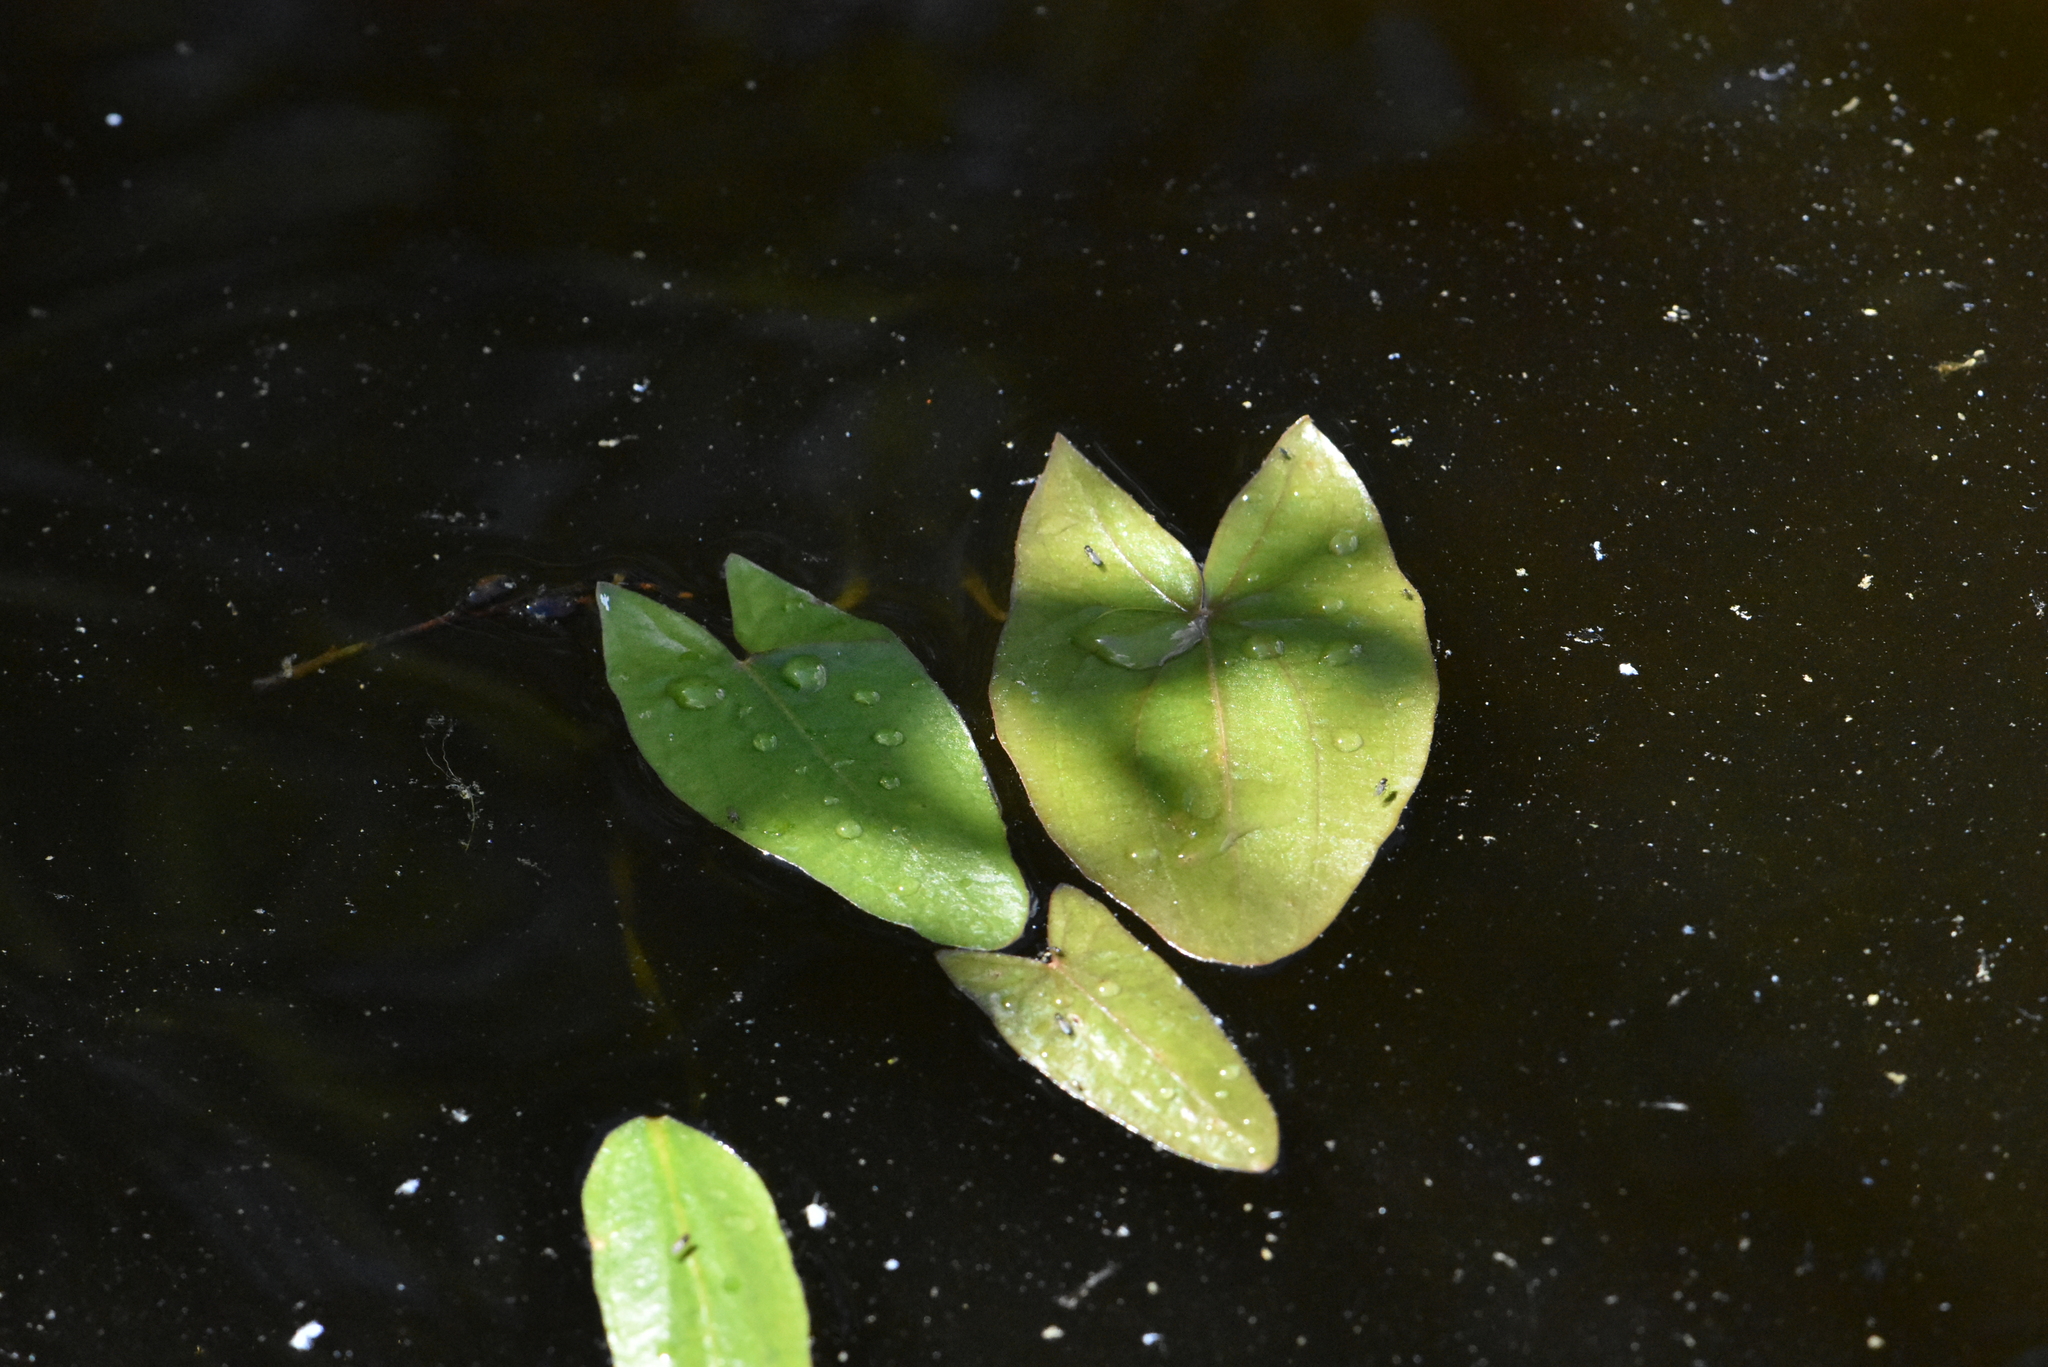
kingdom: Plantae
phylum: Tracheophyta
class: Liliopsida
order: Alismatales
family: Alismataceae
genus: Sagittaria
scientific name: Sagittaria sagittifolia
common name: Arrowhead
